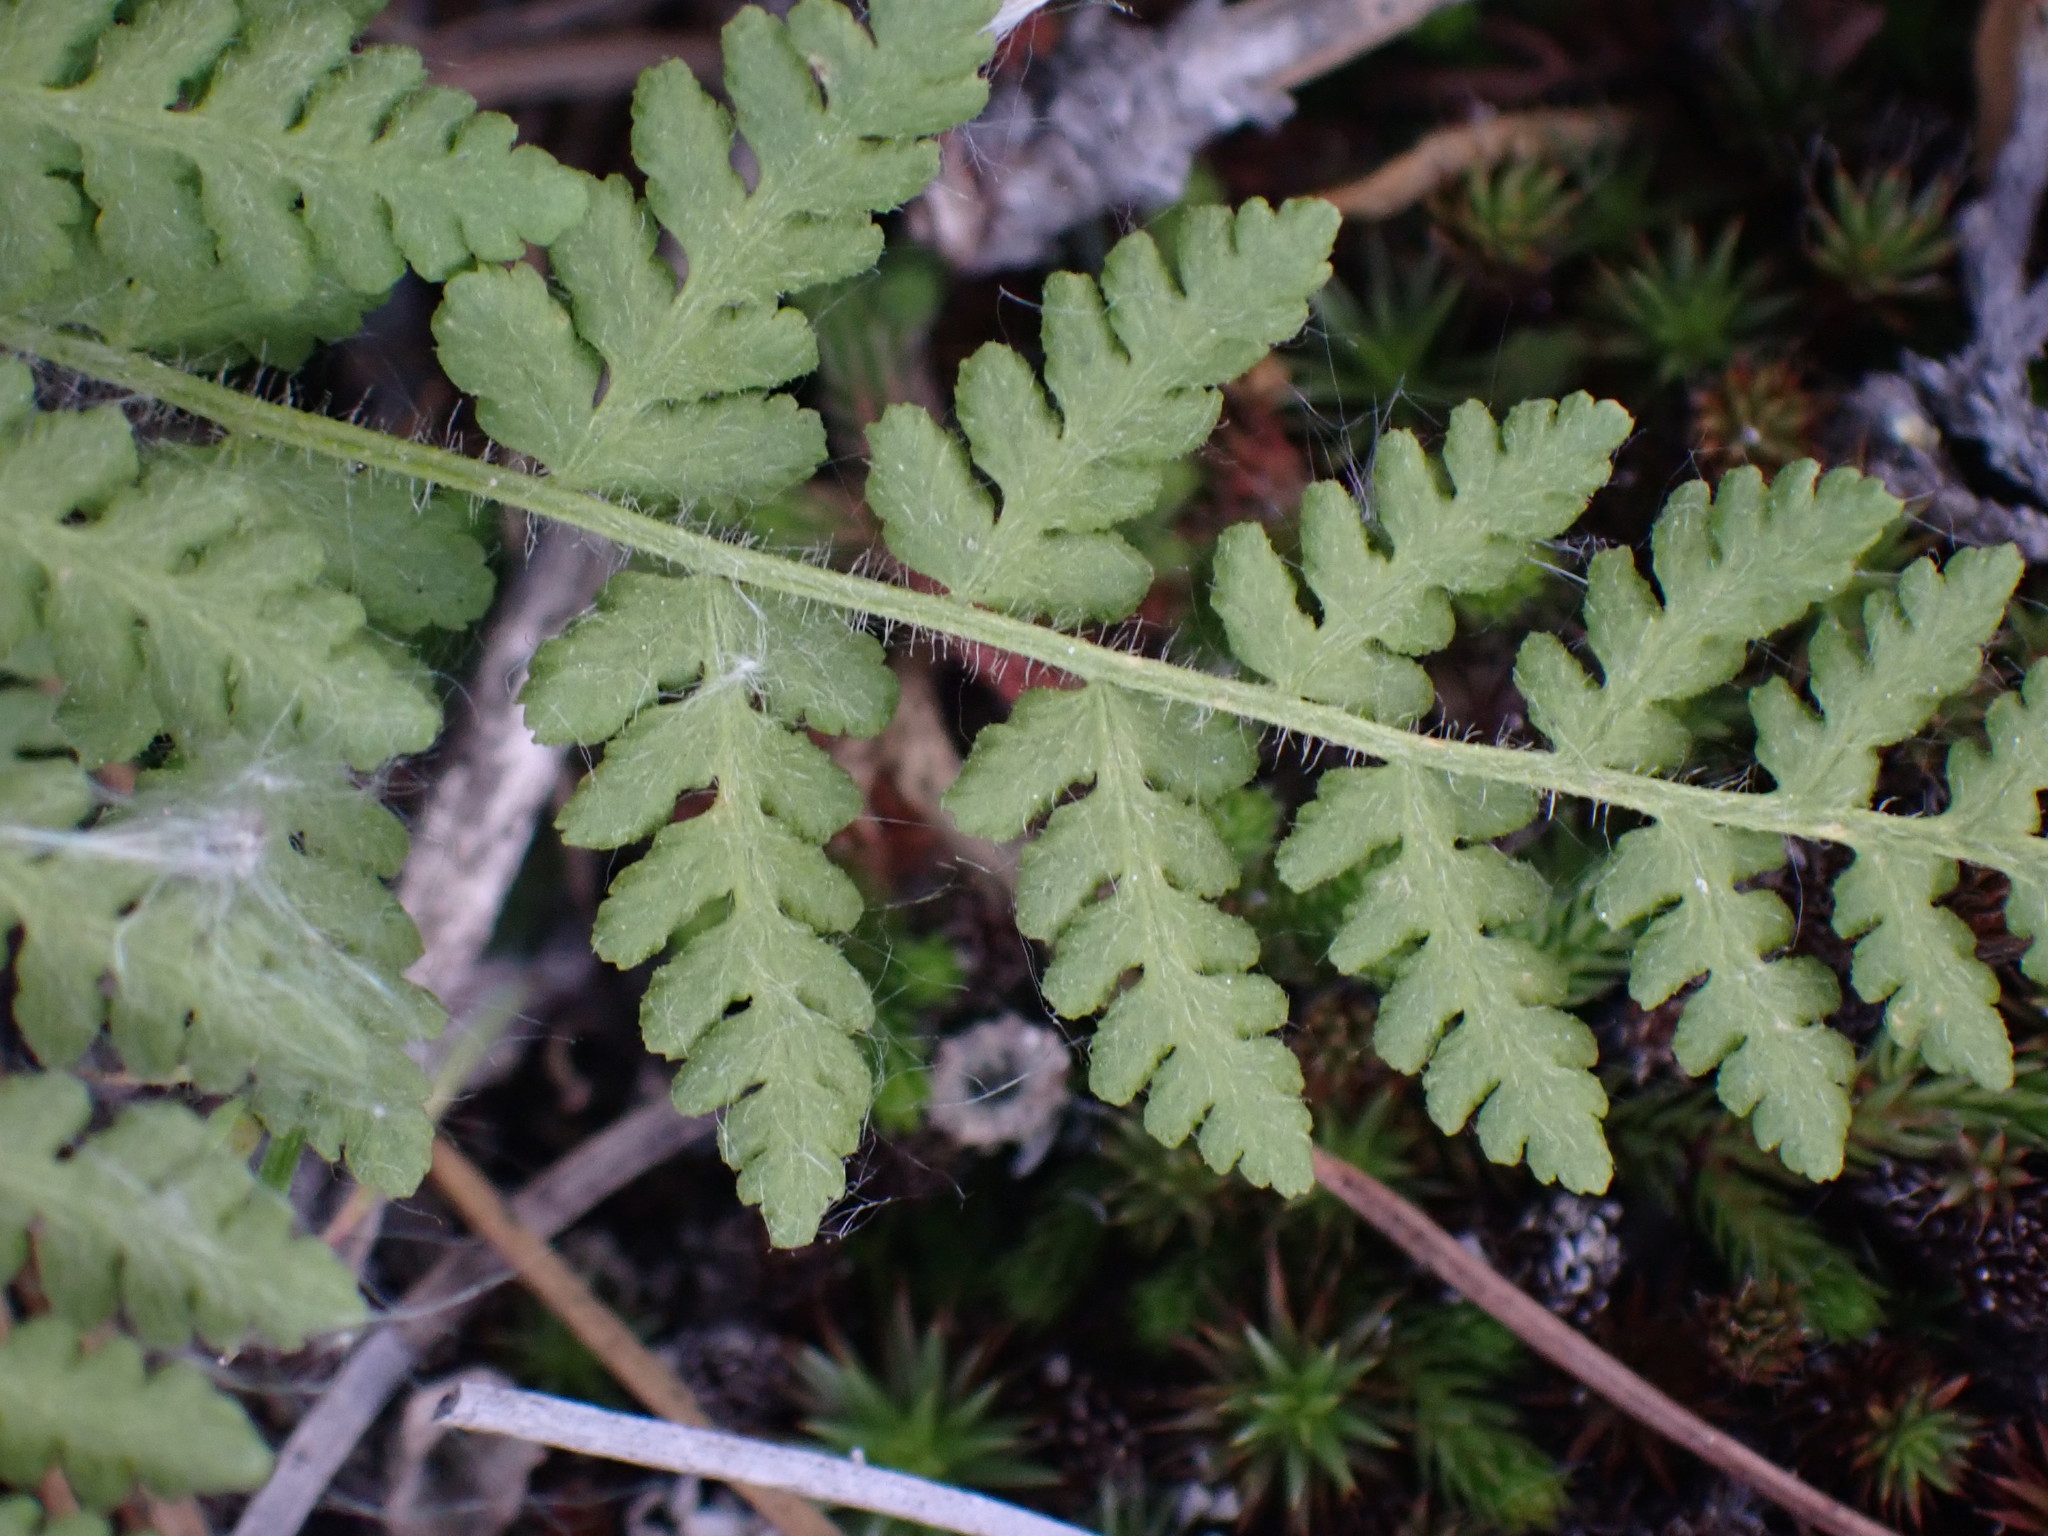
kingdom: Plantae
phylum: Tracheophyta
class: Polypodiopsida
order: Polypodiales
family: Woodsiaceae
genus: Physematium
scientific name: Physematium scopulinum
